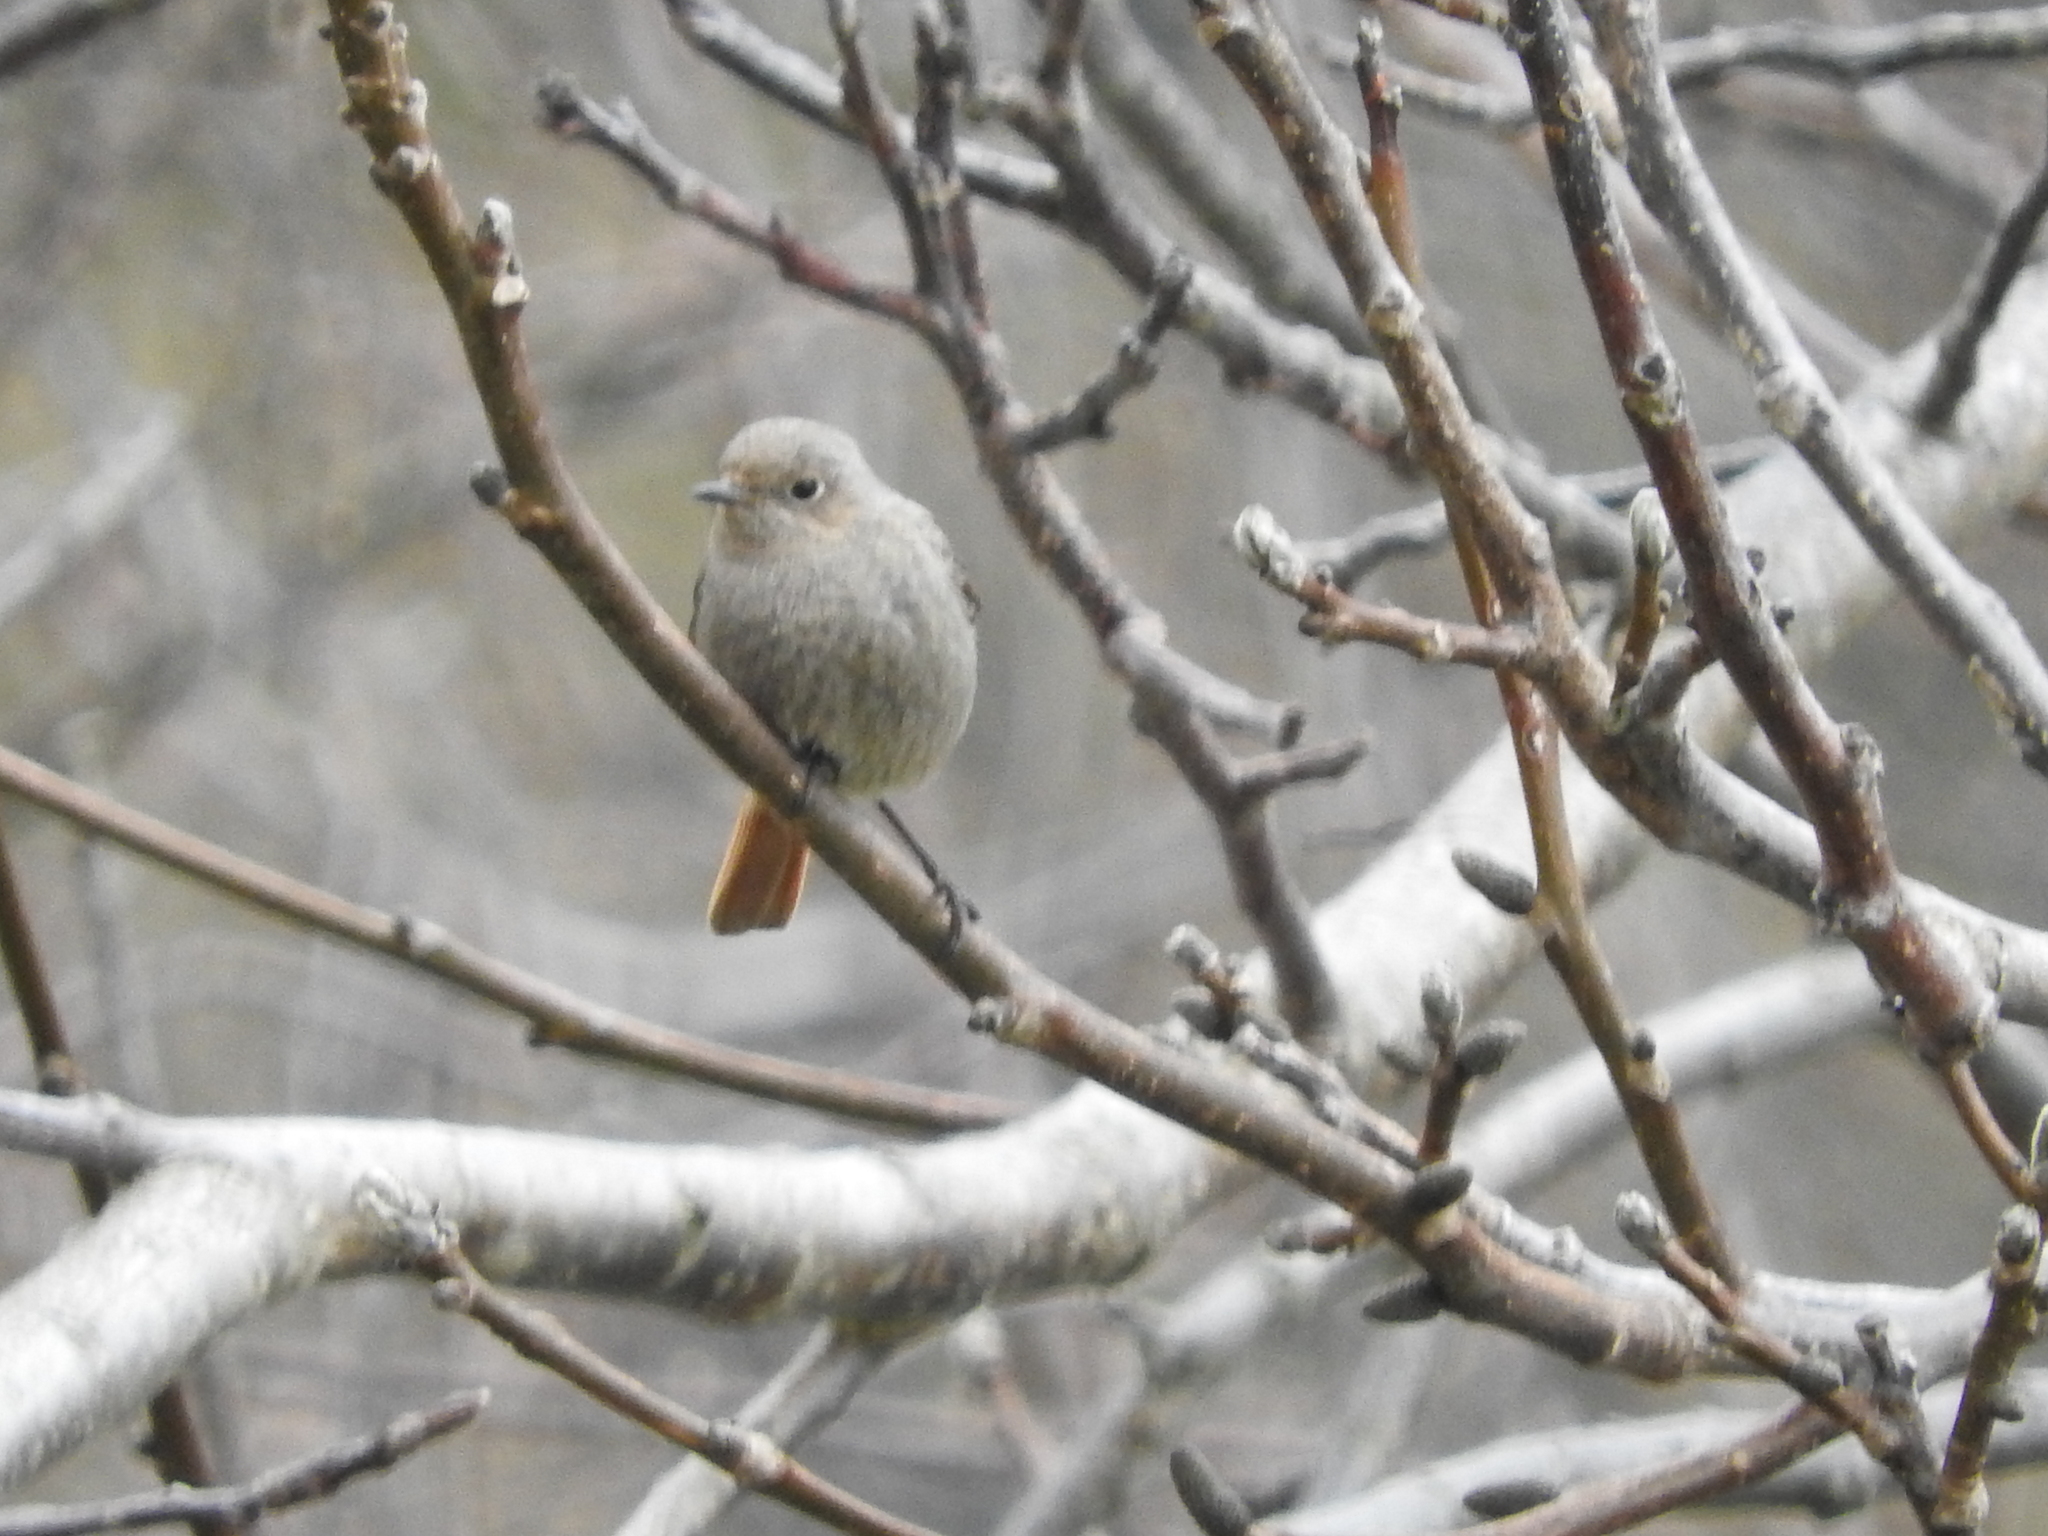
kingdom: Animalia
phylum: Chordata
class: Aves
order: Passeriformes
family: Muscicapidae
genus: Phoenicurus
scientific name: Phoenicurus ochruros
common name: Black redstart
